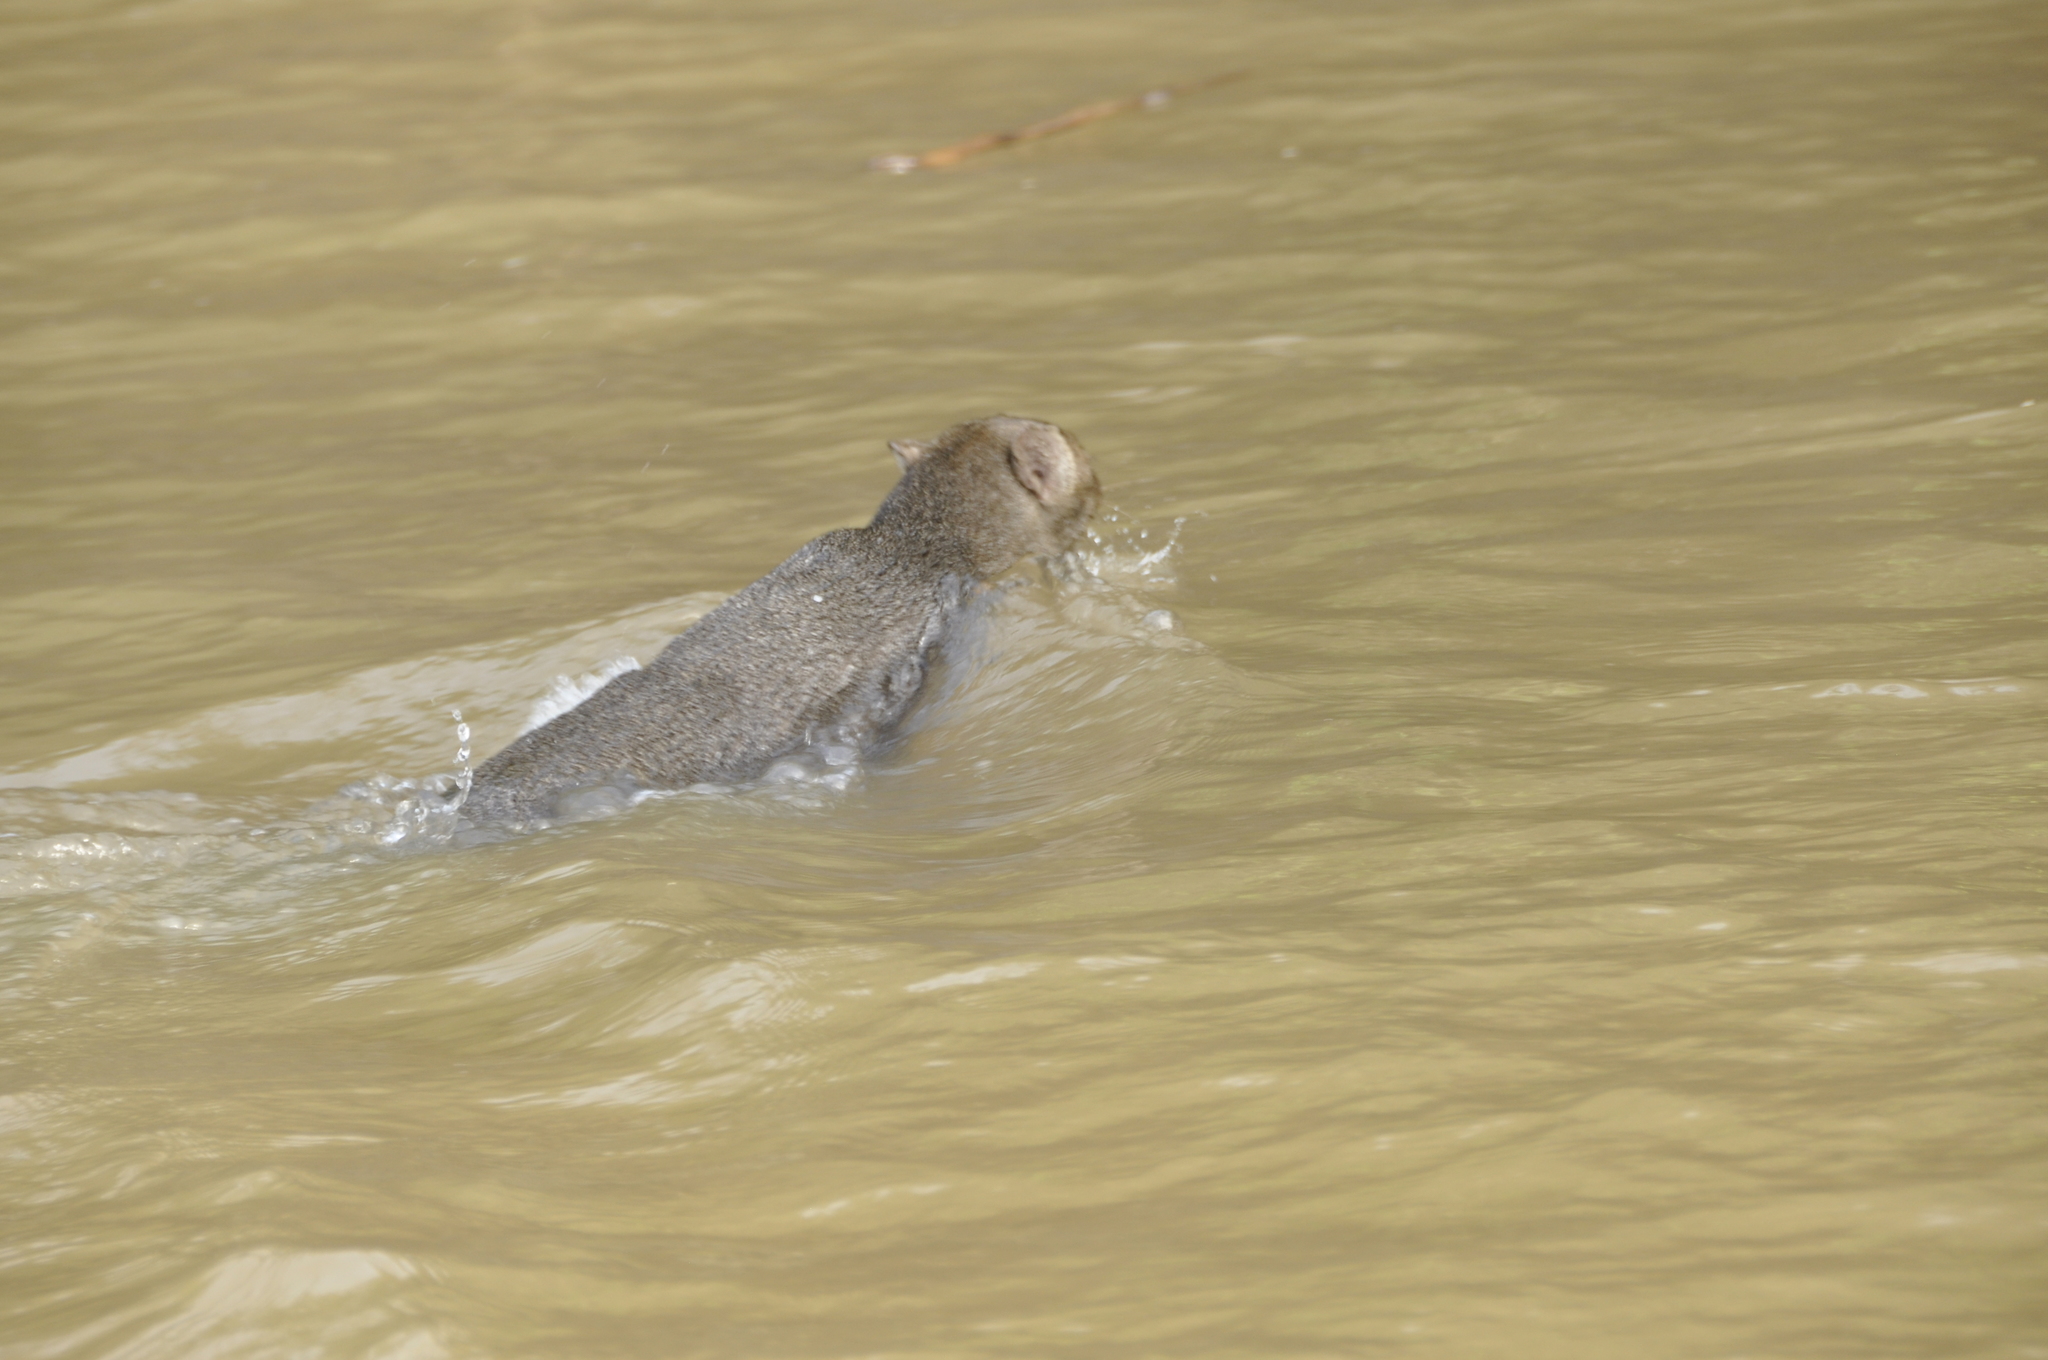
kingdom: Animalia
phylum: Chordata
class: Mammalia
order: Carnivora
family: Felidae
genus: Puma
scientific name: Puma yagouaroundi
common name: Jaguarundi
